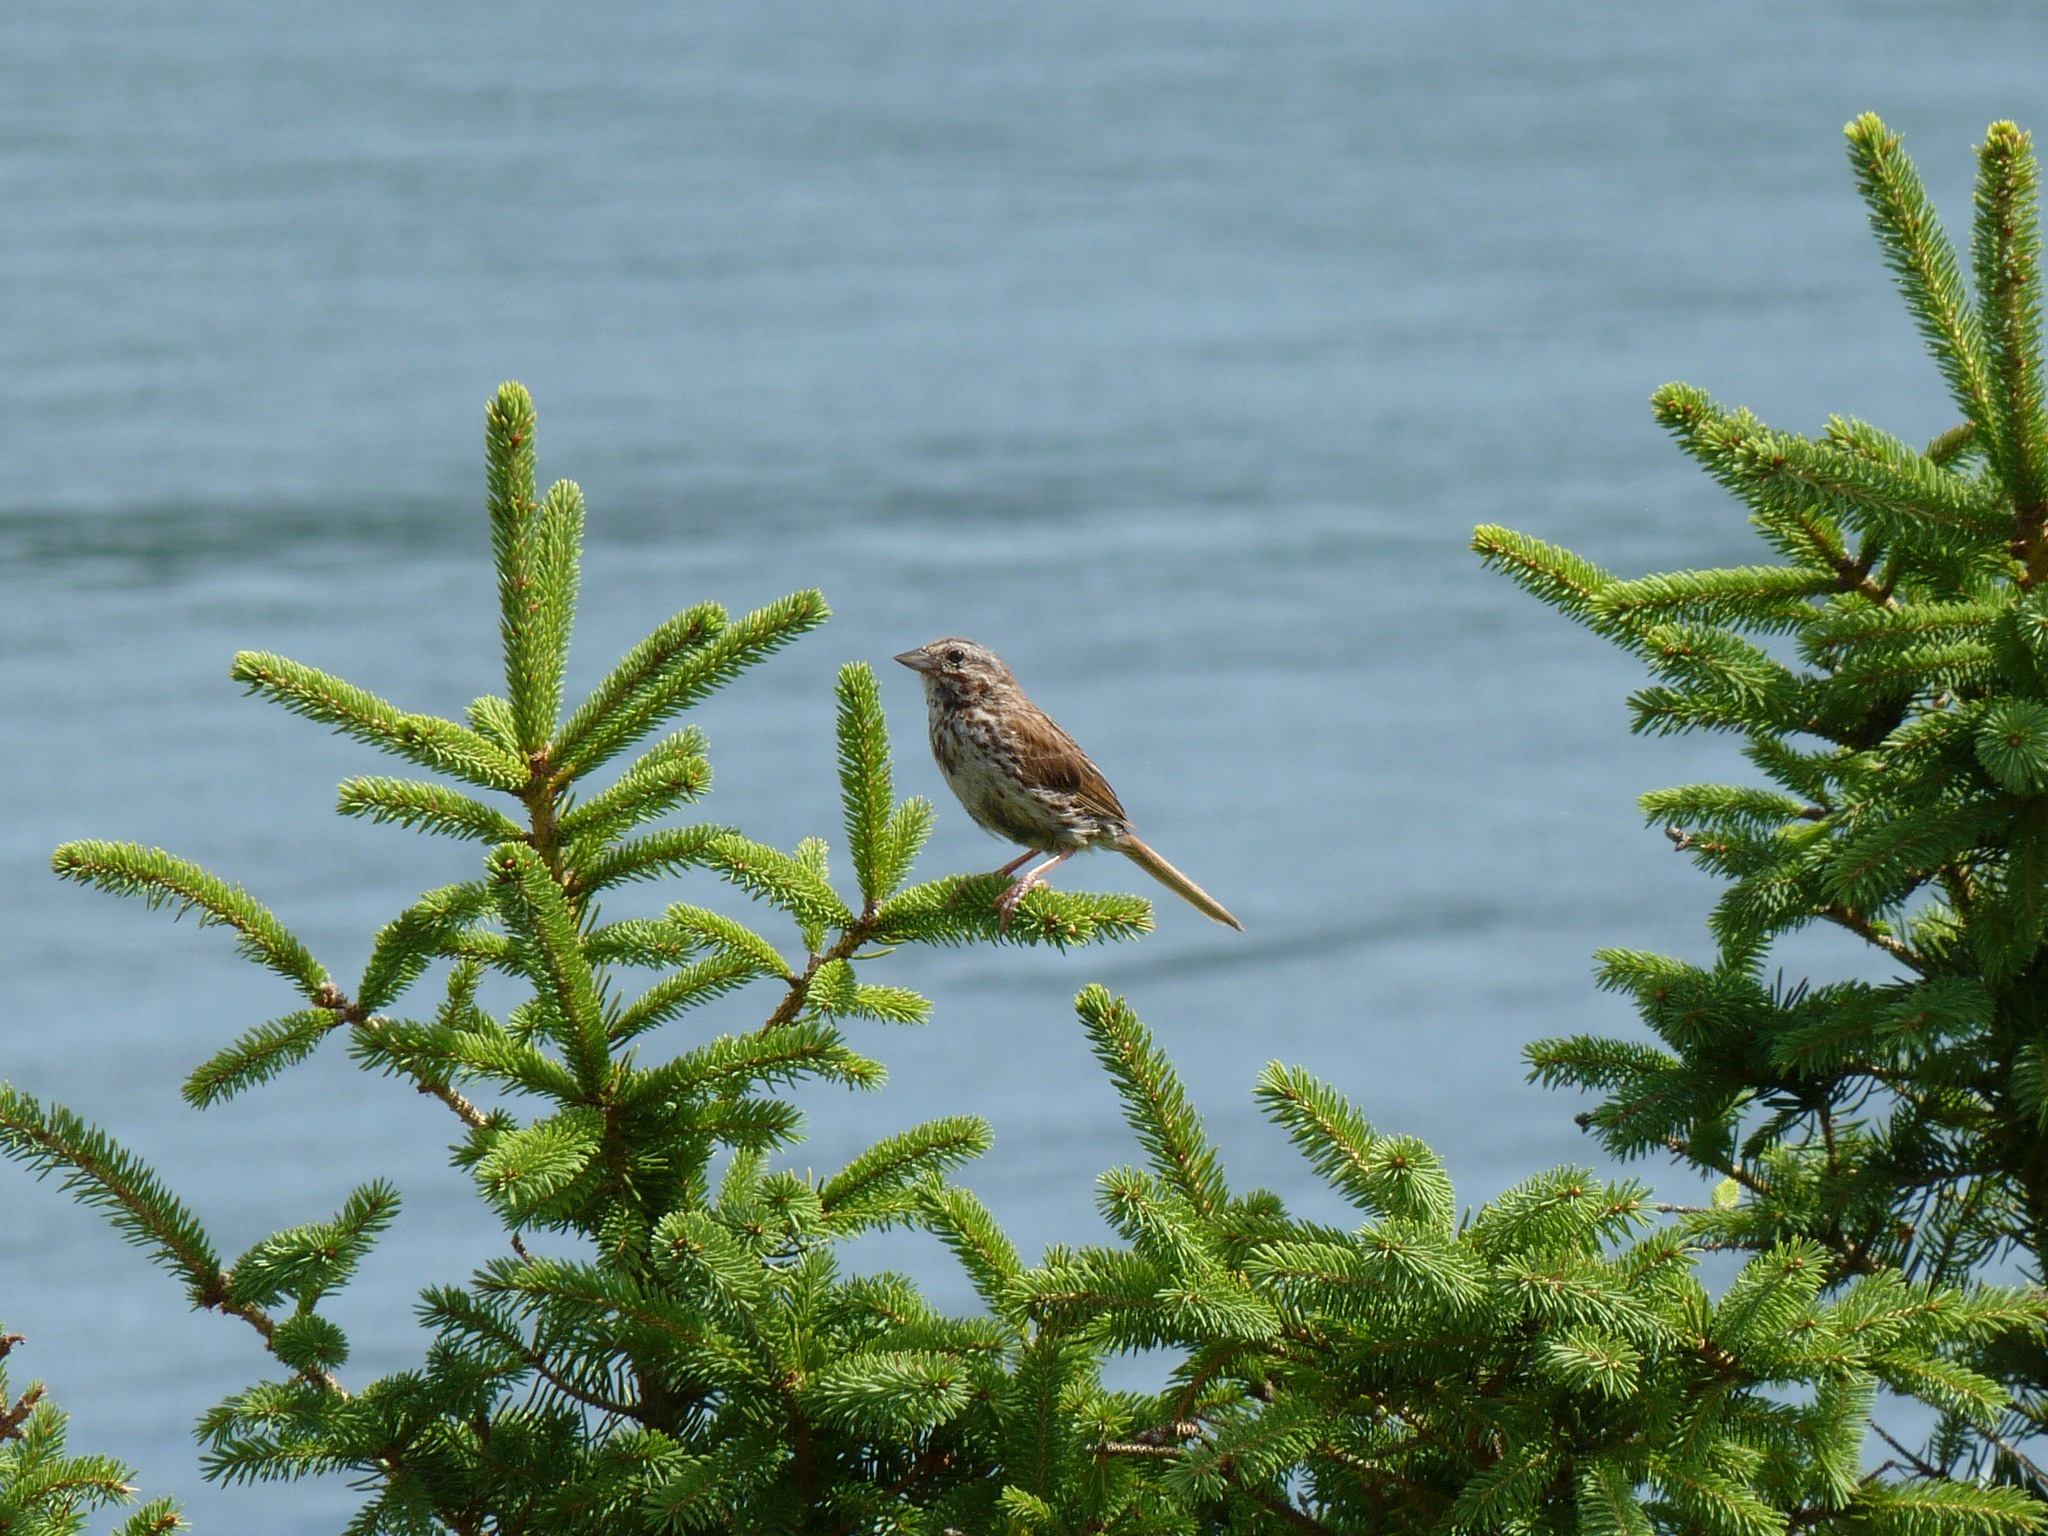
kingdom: Animalia
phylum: Chordata
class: Aves
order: Passeriformes
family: Passerellidae
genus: Melospiza
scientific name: Melospiza melodia
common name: Song sparrow
